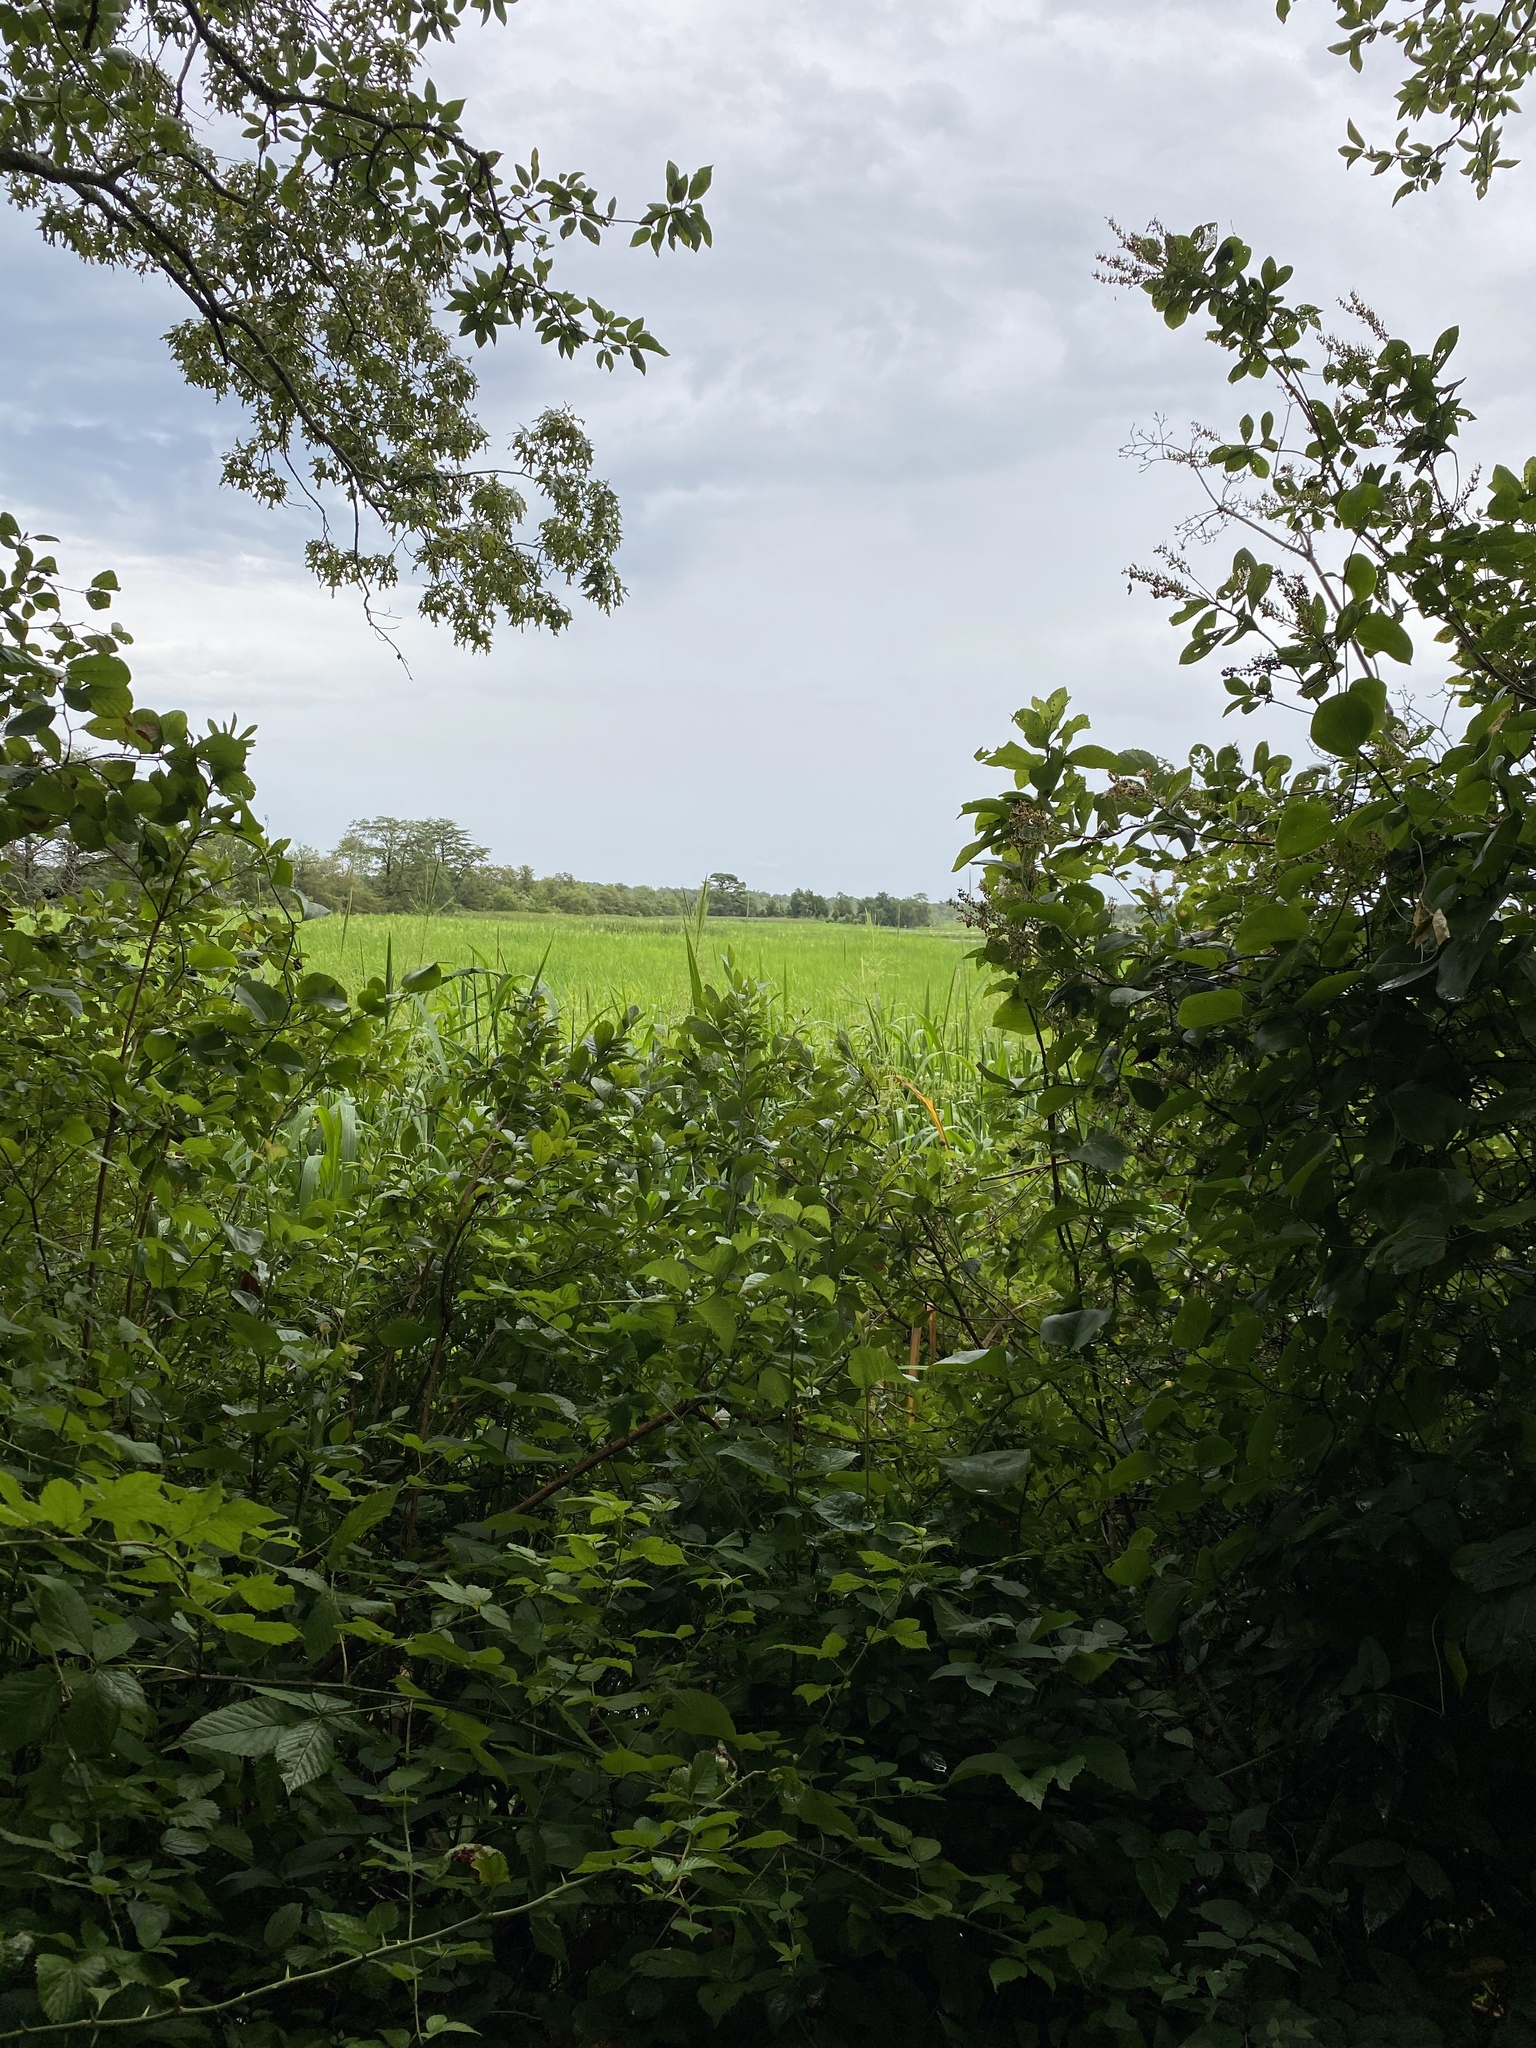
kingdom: Plantae
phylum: Tracheophyta
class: Liliopsida
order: Poales
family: Poaceae
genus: Zizania
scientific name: Zizania aquatica
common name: Annual wildrice
